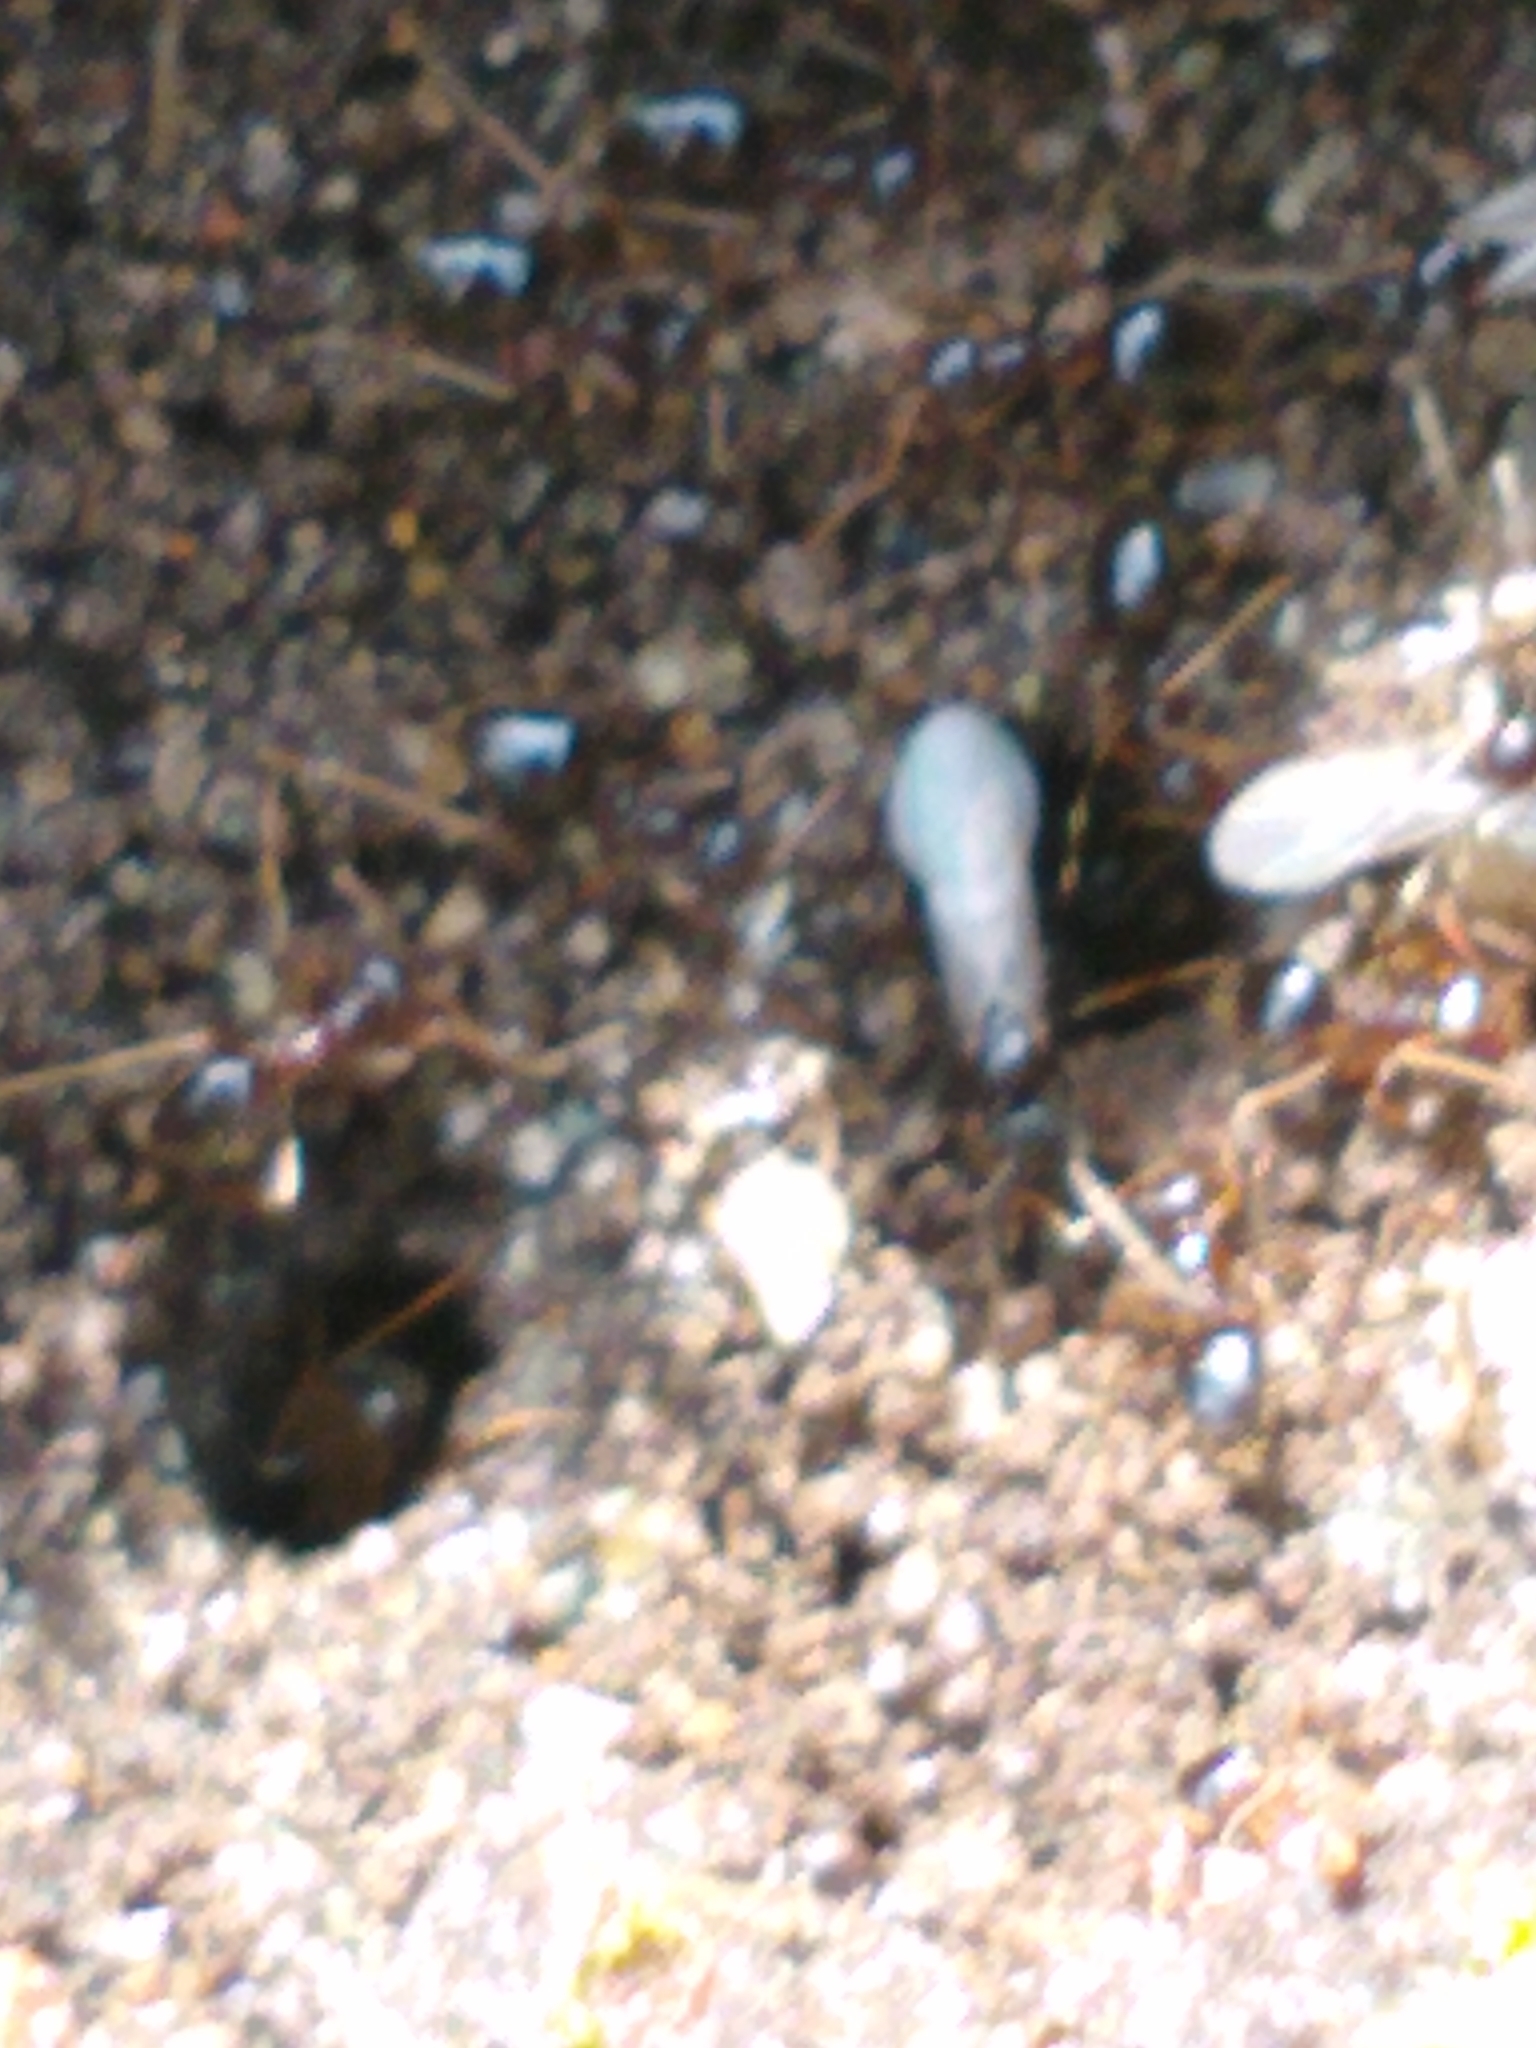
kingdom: Animalia
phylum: Arthropoda
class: Insecta
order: Hymenoptera
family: Formicidae
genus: Prenolepis
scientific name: Prenolepis imparis
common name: Small honey ant
